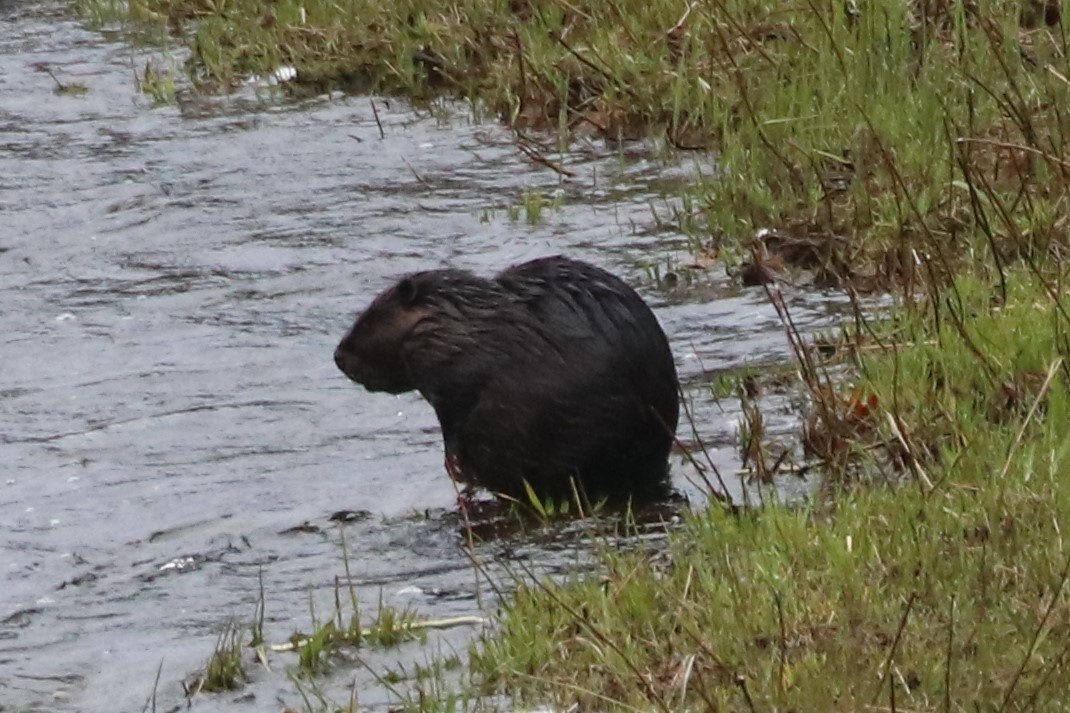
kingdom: Animalia
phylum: Chordata
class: Mammalia
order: Rodentia
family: Castoridae
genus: Castor
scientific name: Castor canadensis
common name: American beaver
